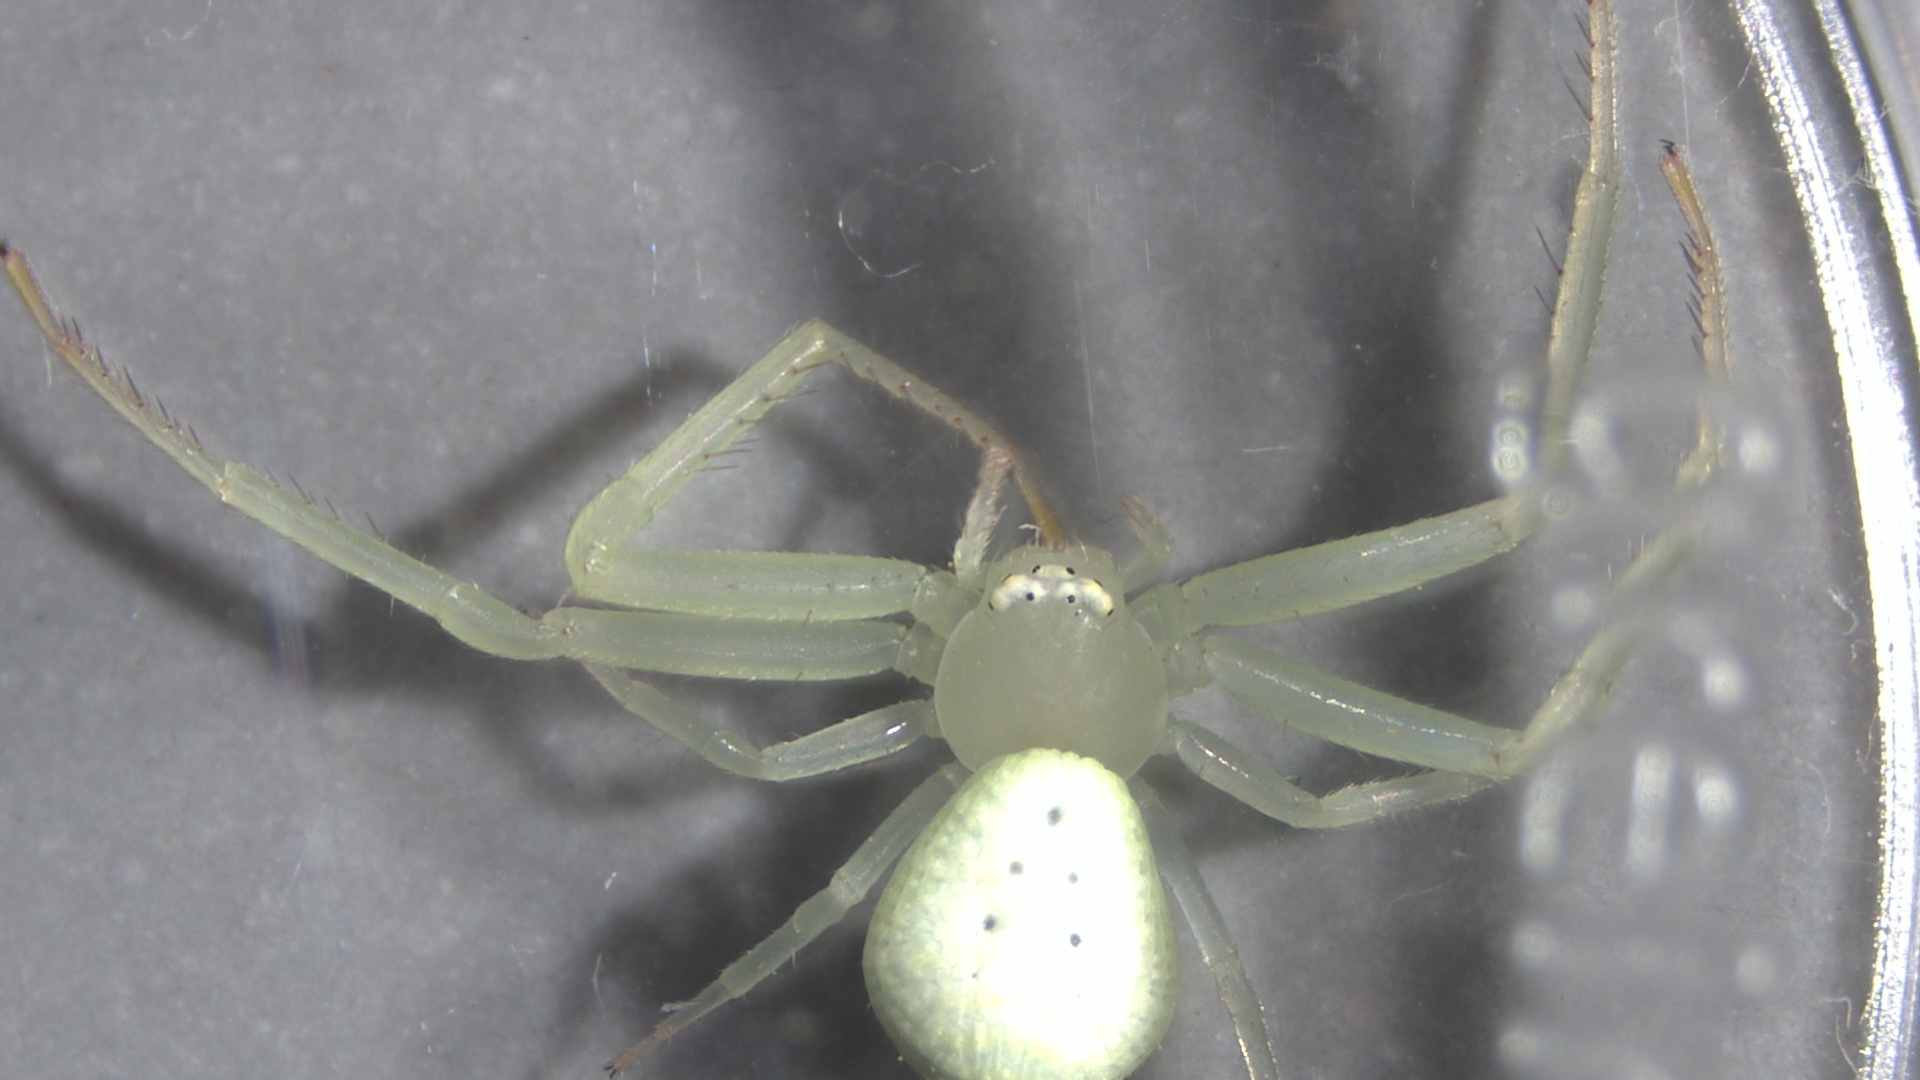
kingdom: Animalia
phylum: Arthropoda
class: Arachnida
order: Araneae
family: Thomisidae
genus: Misumessus
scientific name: Misumessus oblongus
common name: American green crab spider
